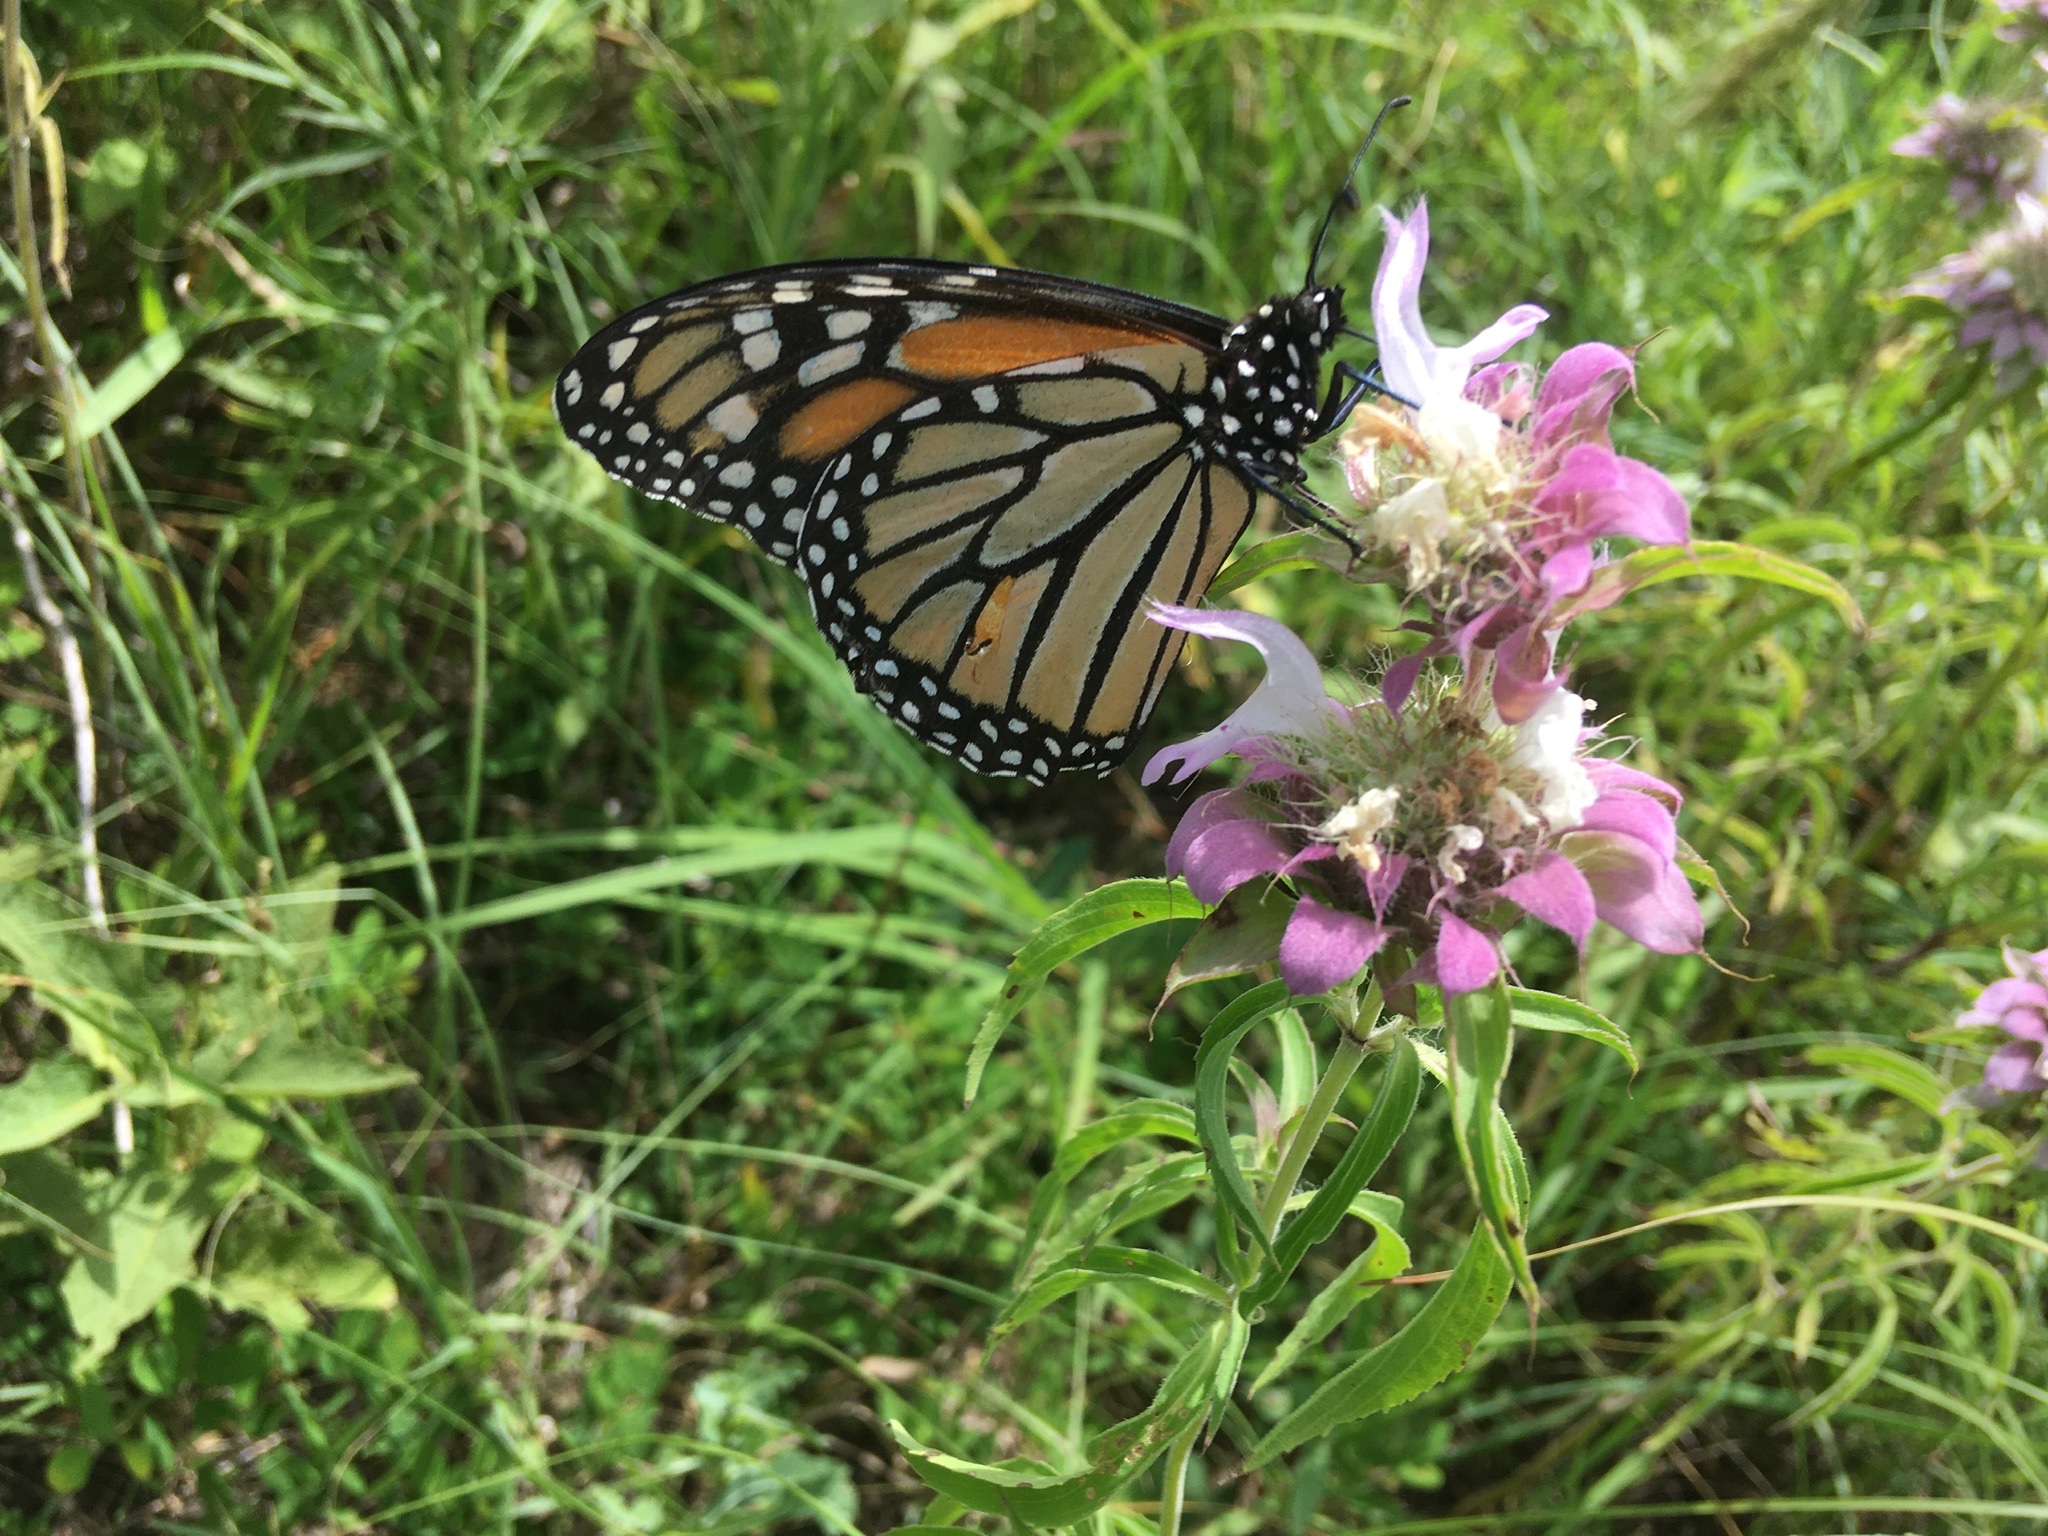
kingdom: Animalia
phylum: Arthropoda
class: Insecta
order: Lepidoptera
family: Nymphalidae
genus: Danaus
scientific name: Danaus plexippus
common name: Monarch
